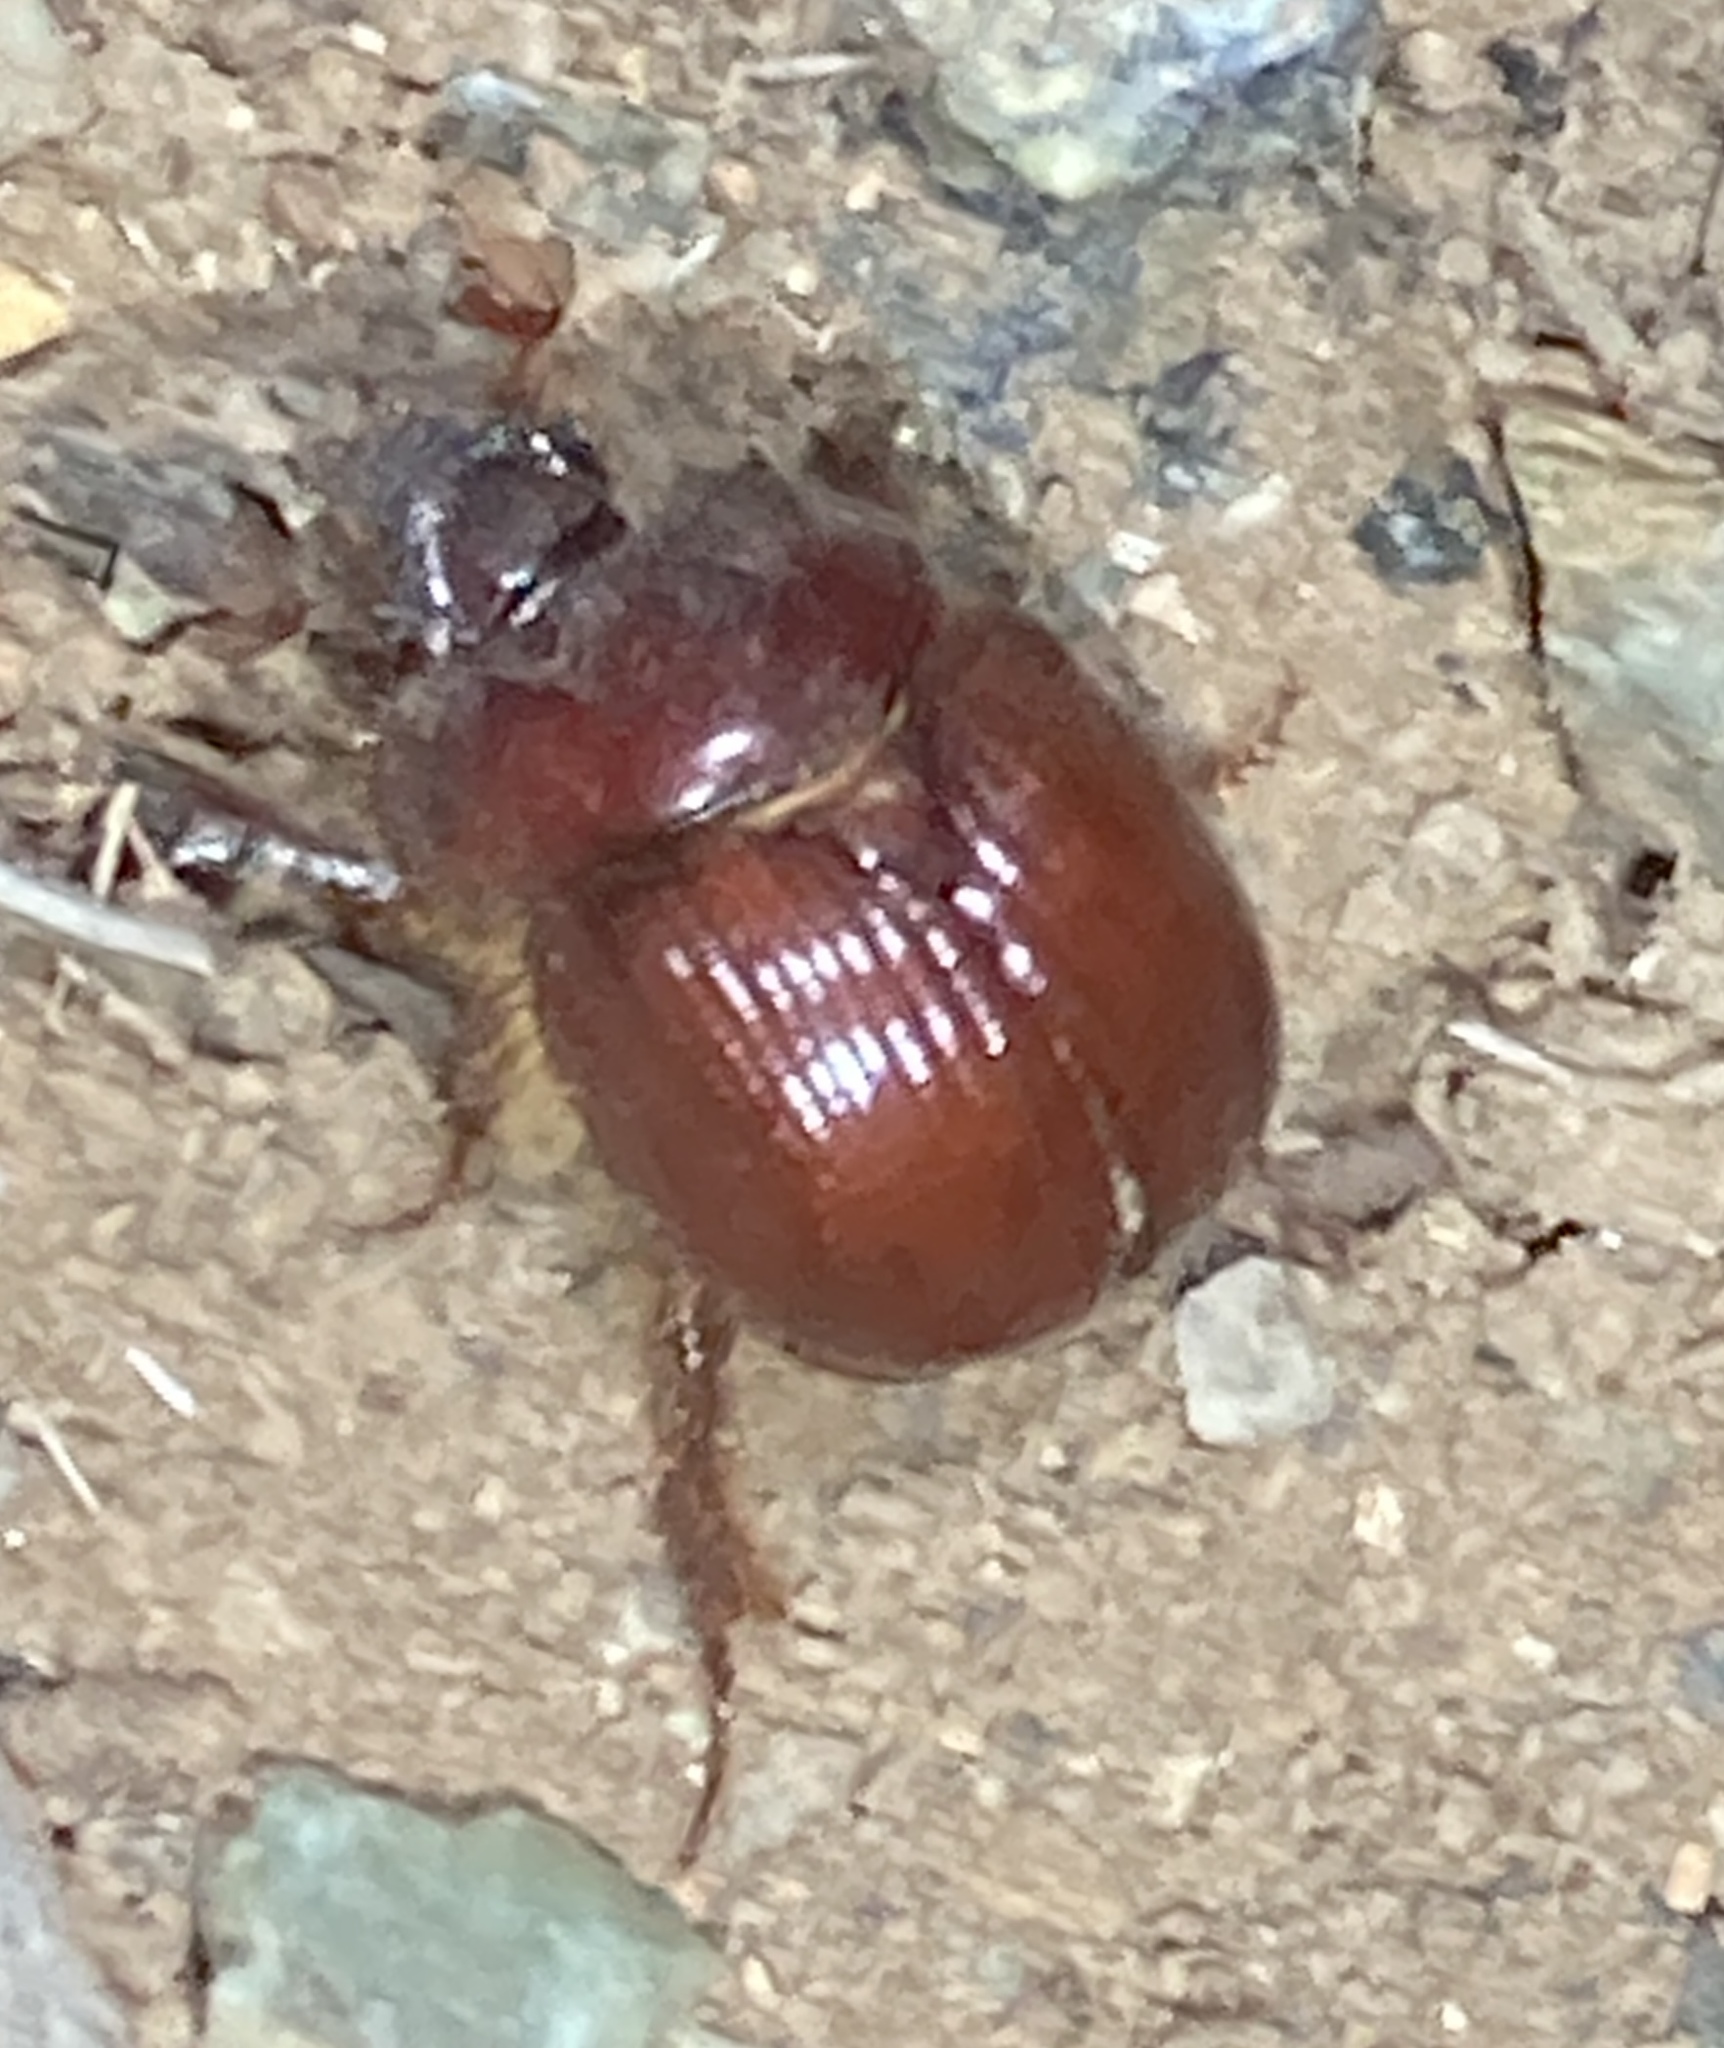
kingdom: Animalia
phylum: Arthropoda
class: Insecta
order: Coleoptera
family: Geotrupidae
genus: Bolbelasmus
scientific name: Bolbelasmus hornii
